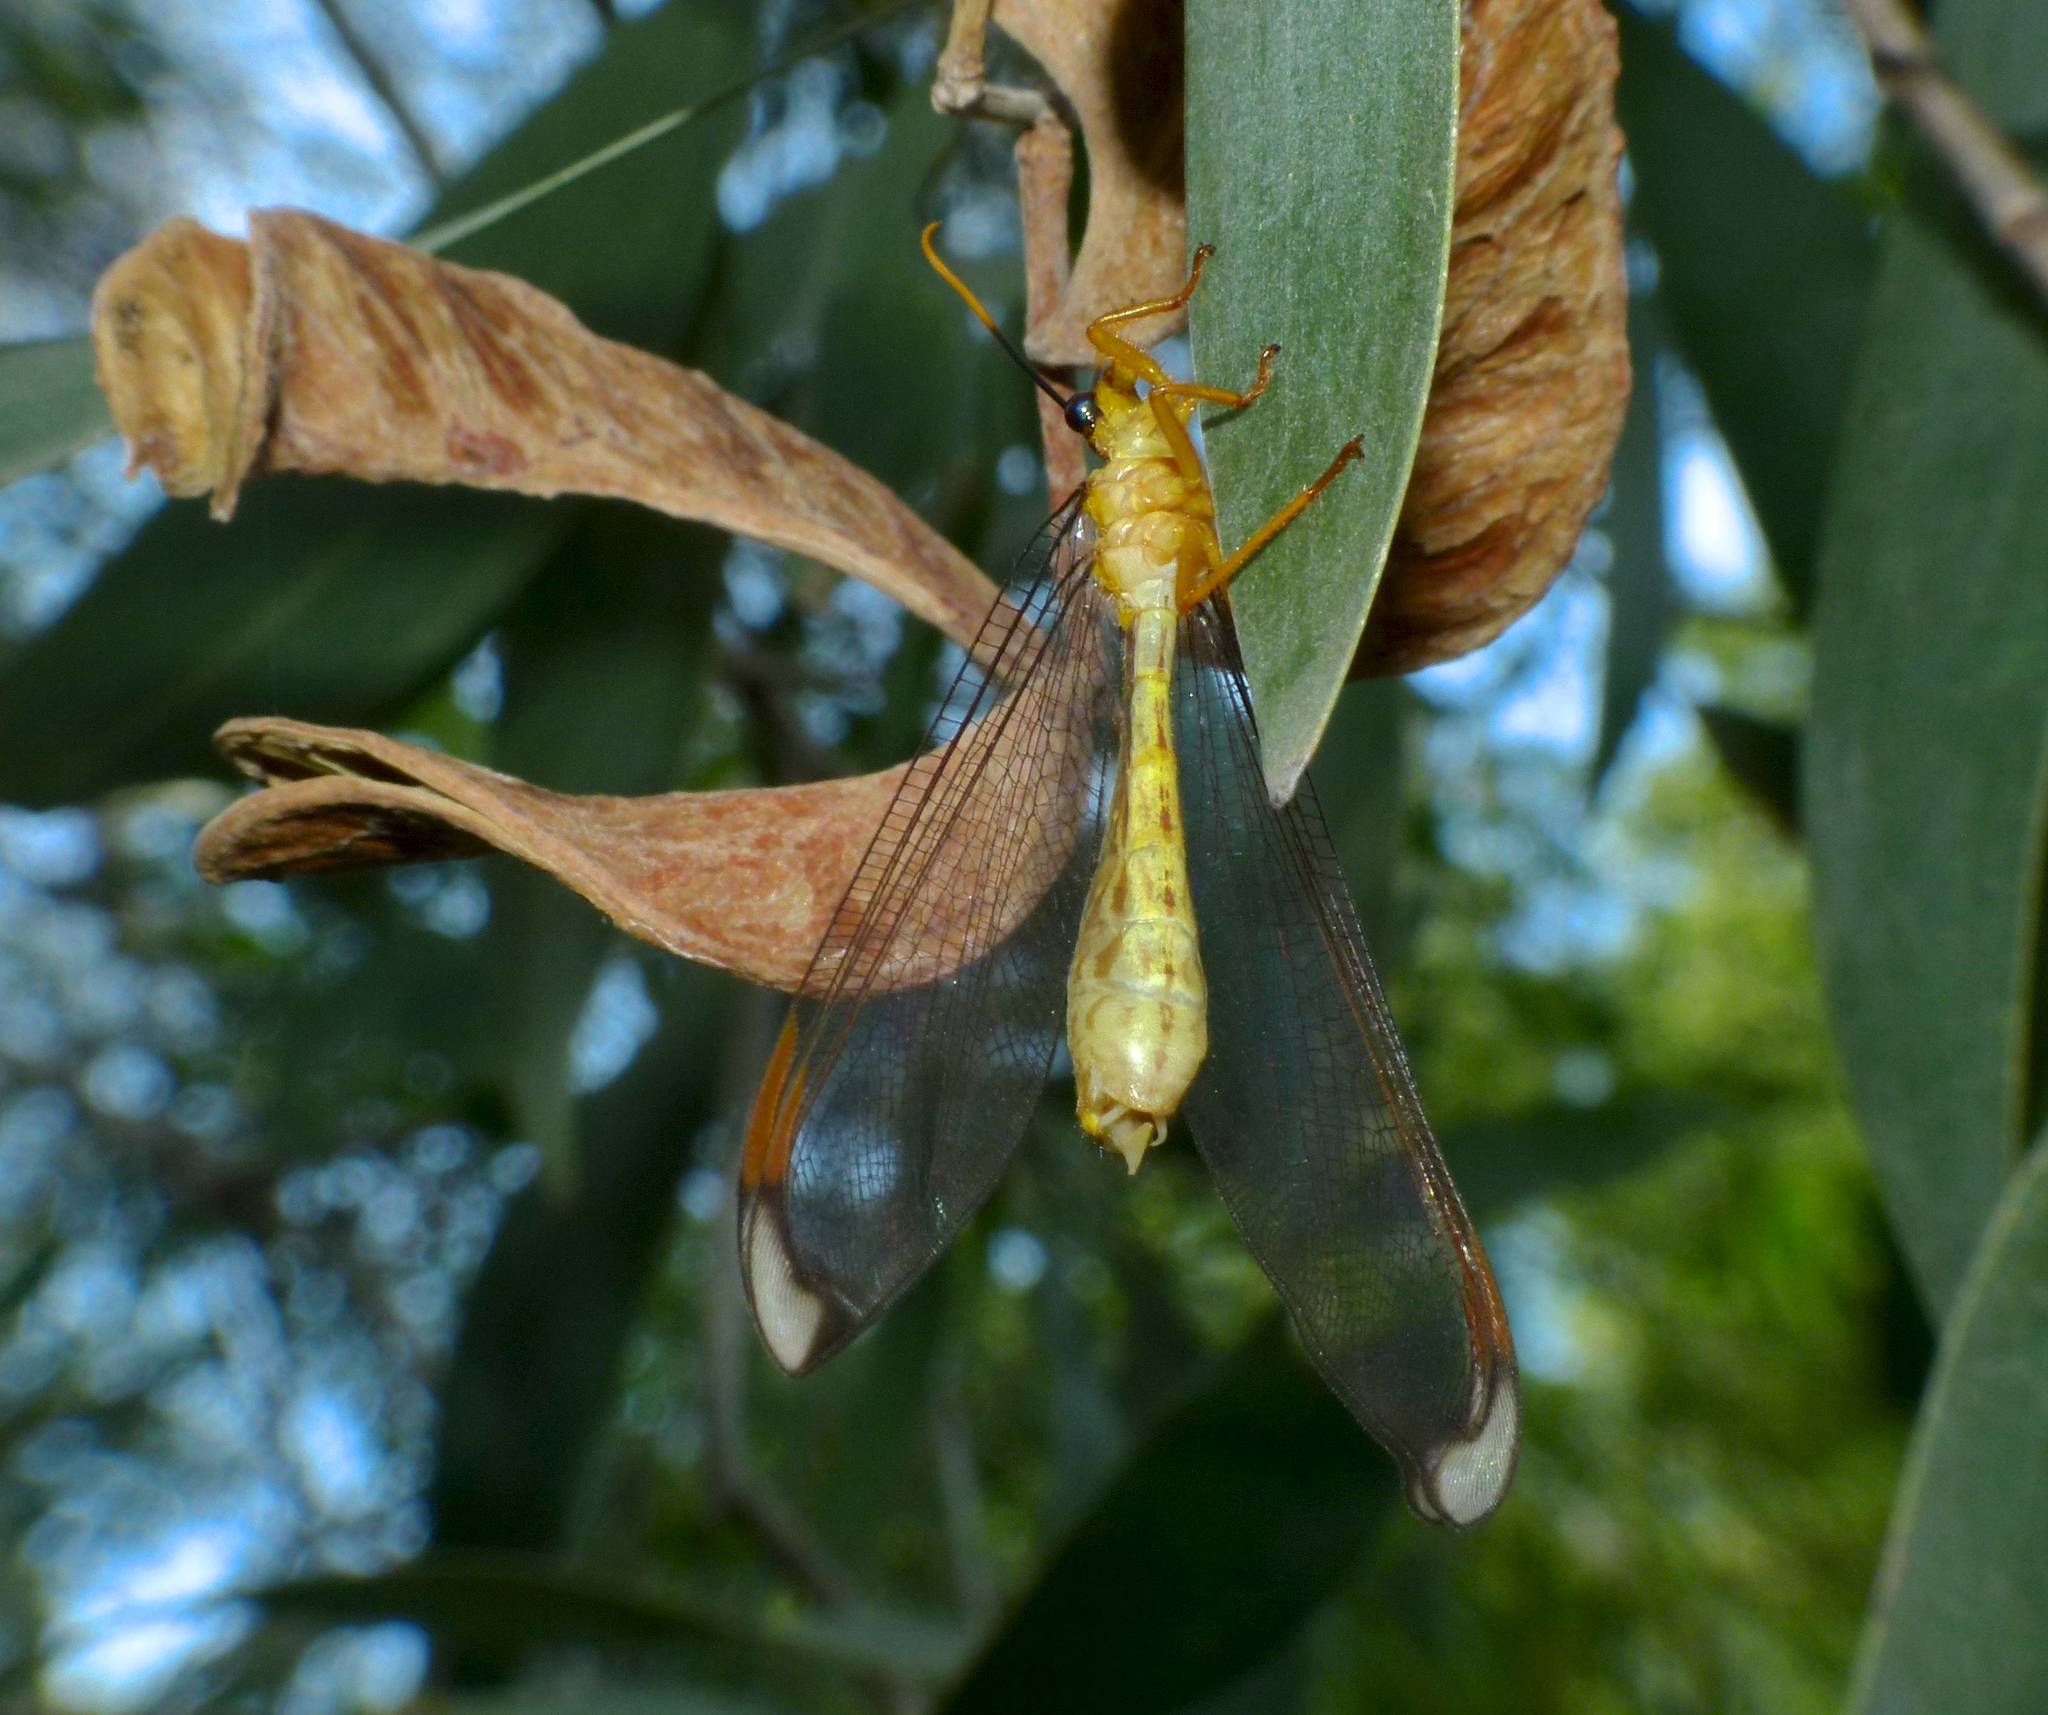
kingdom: Animalia
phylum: Arthropoda
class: Insecta
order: Neuroptera
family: Nymphidae
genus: Nymphes
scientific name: Nymphes myrmeleonoides
